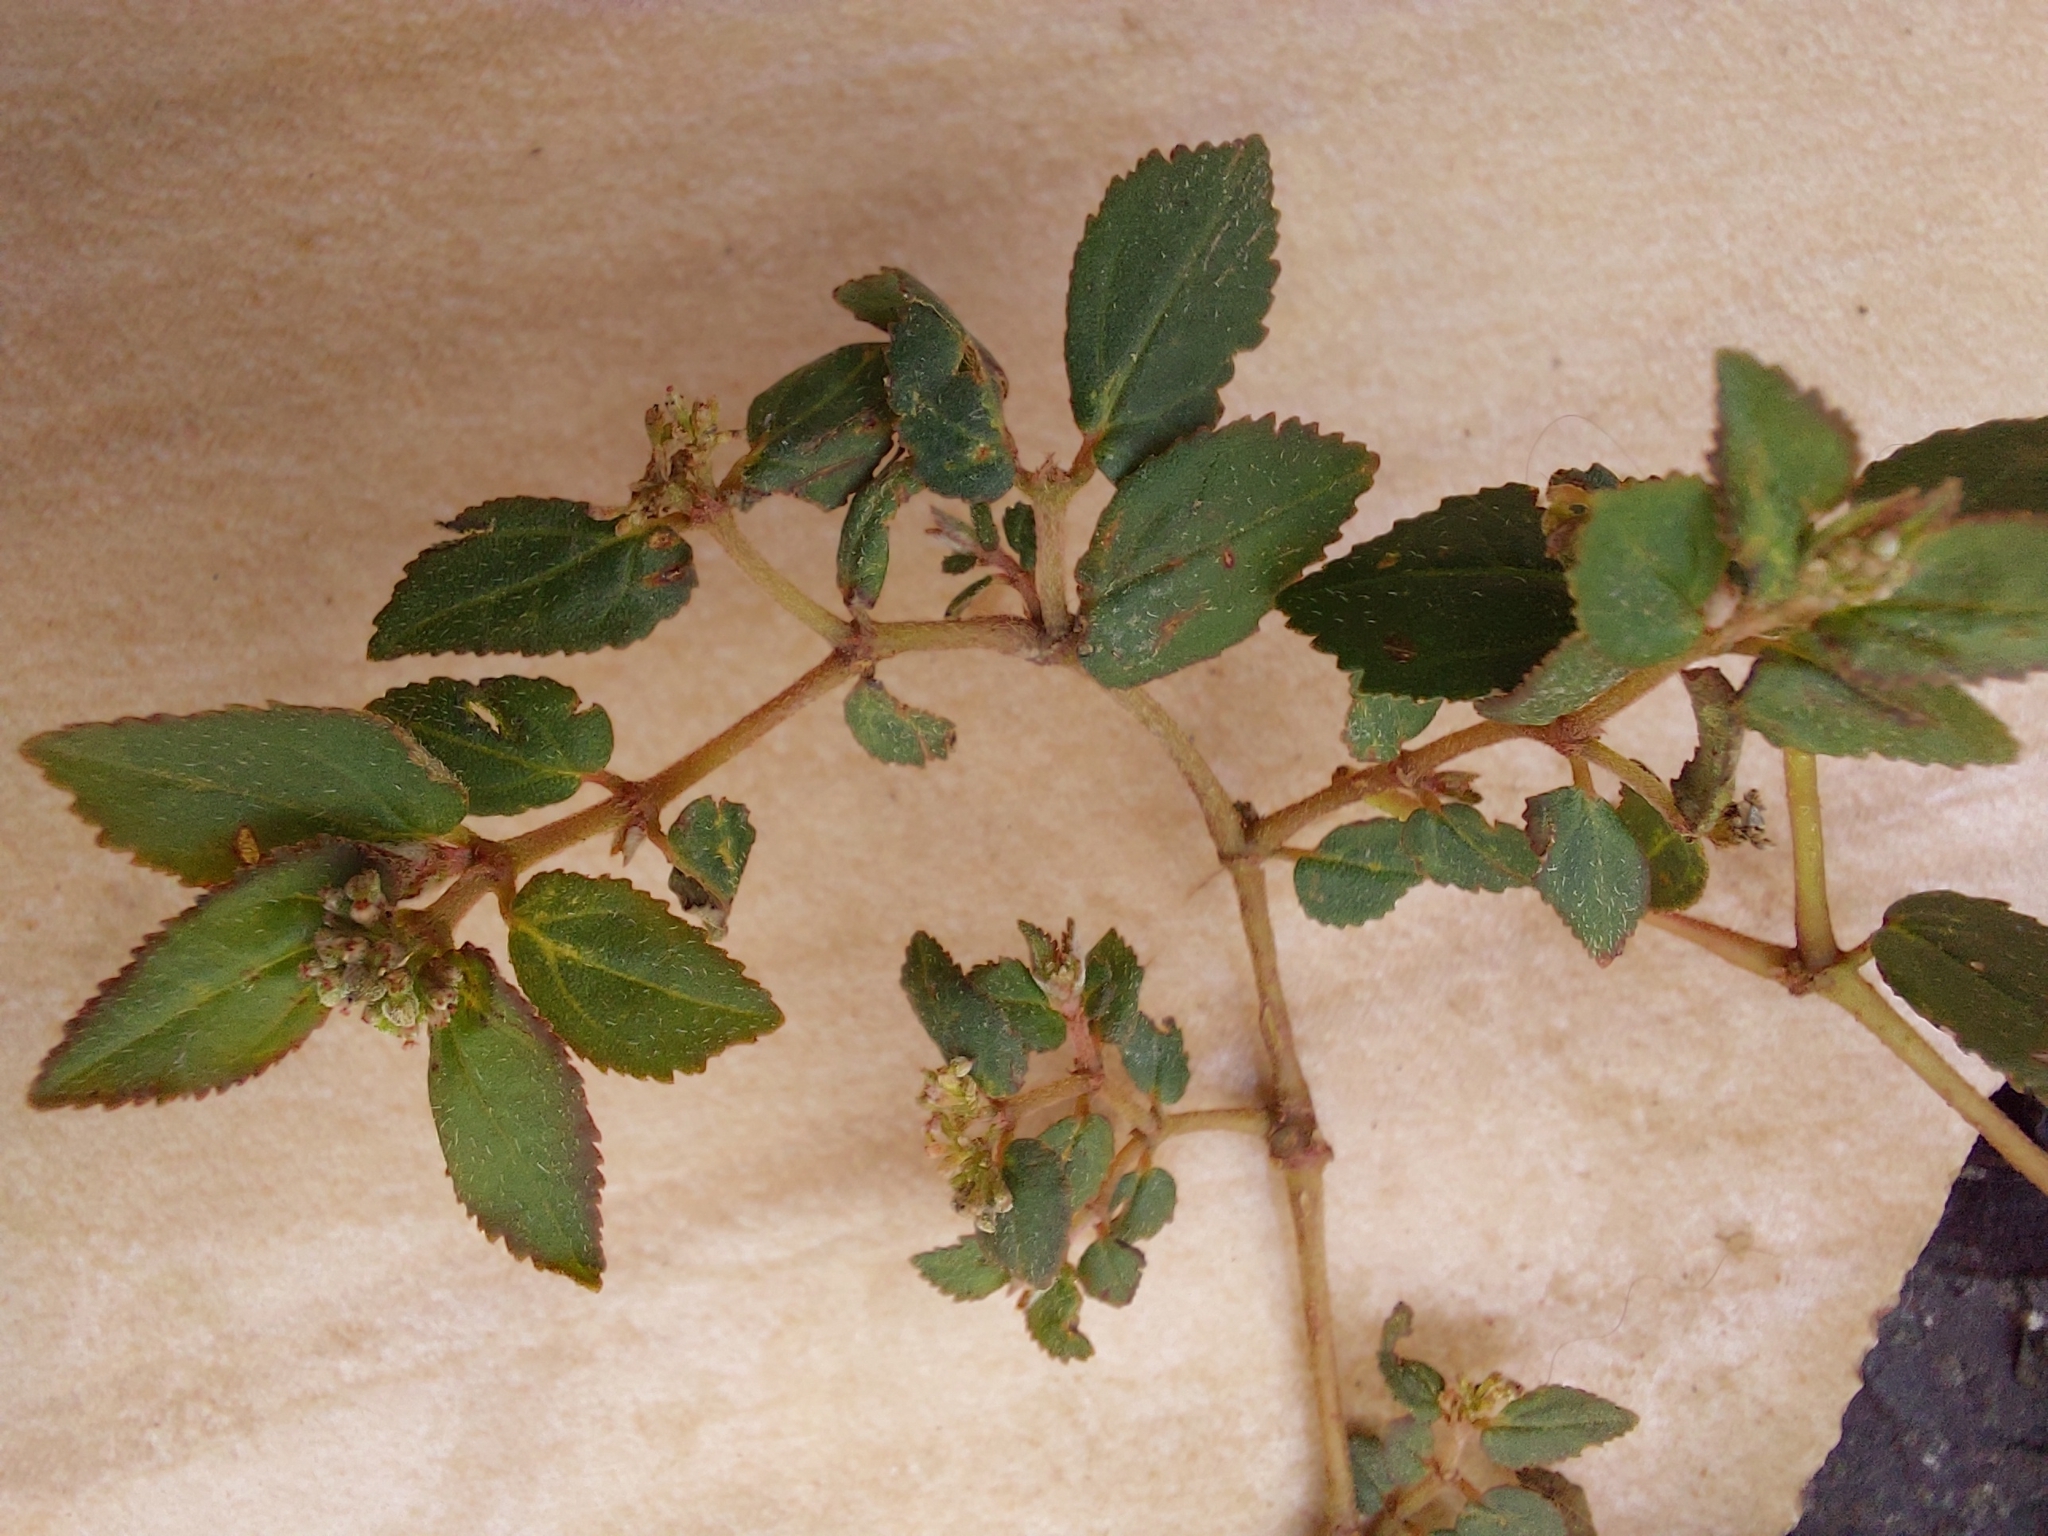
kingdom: Plantae
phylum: Tracheophyta
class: Magnoliopsida
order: Malpighiales
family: Euphorbiaceae
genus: Euphorbia
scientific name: Euphorbia ophthalmica
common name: Florida hammock sandmat
